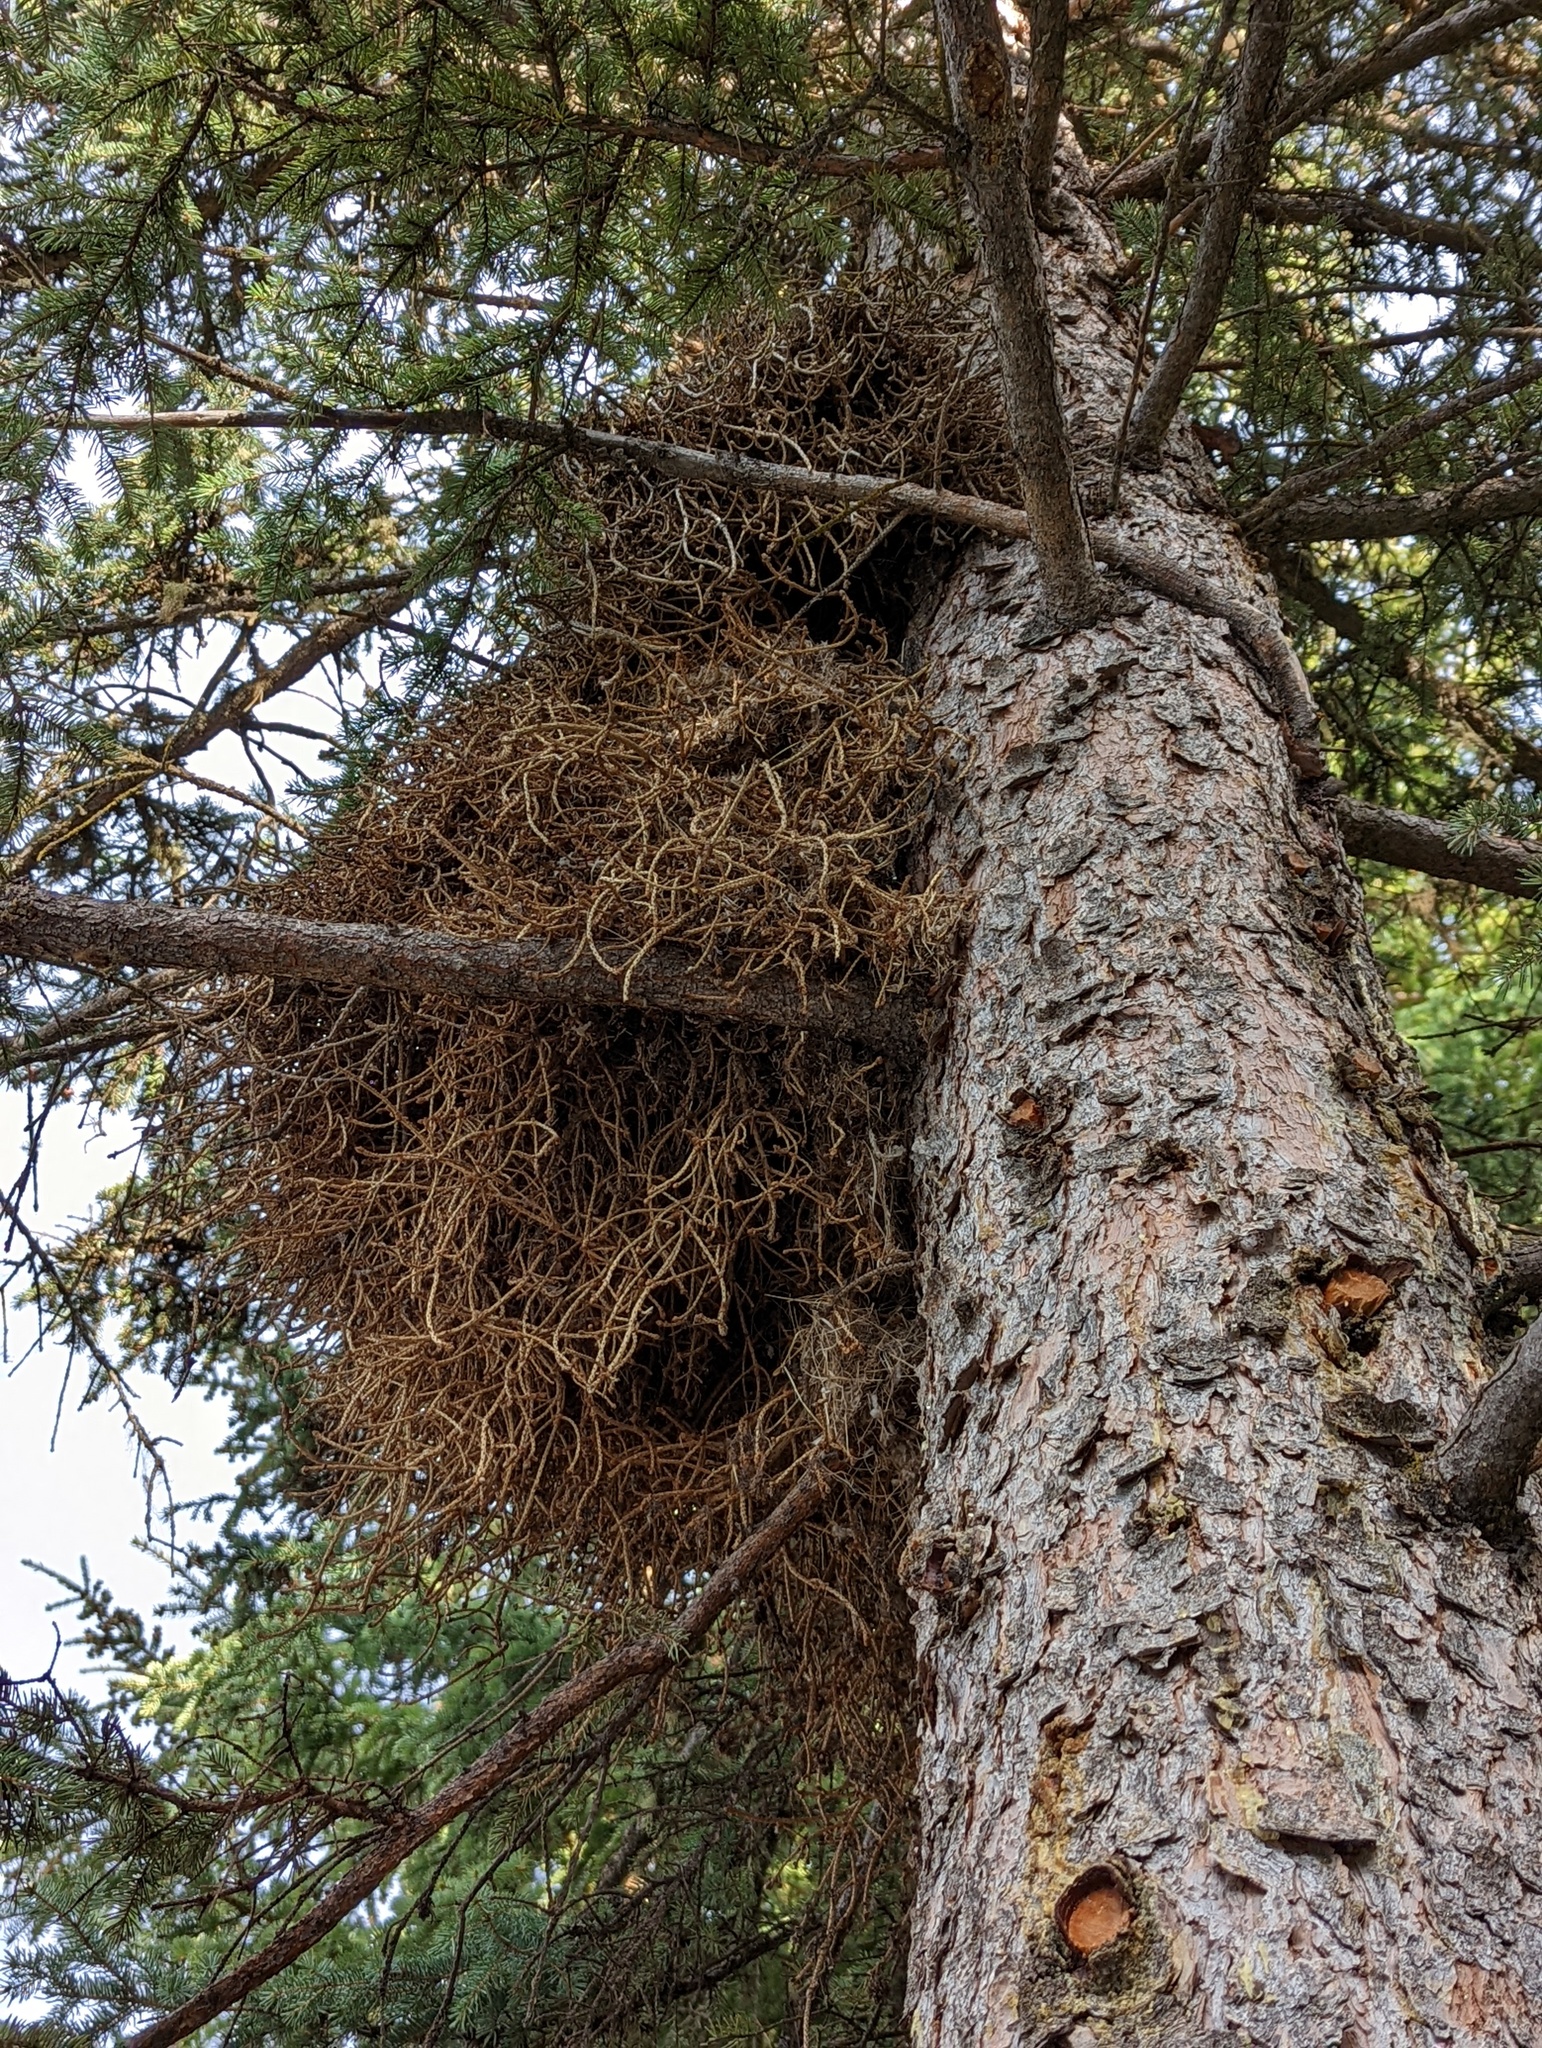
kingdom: Fungi
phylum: Basidiomycota
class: Pucciniomycetes
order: Pucciniales
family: Coleosporiaceae
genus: Chrysomyxa
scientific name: Chrysomyxa arctostaphyli
